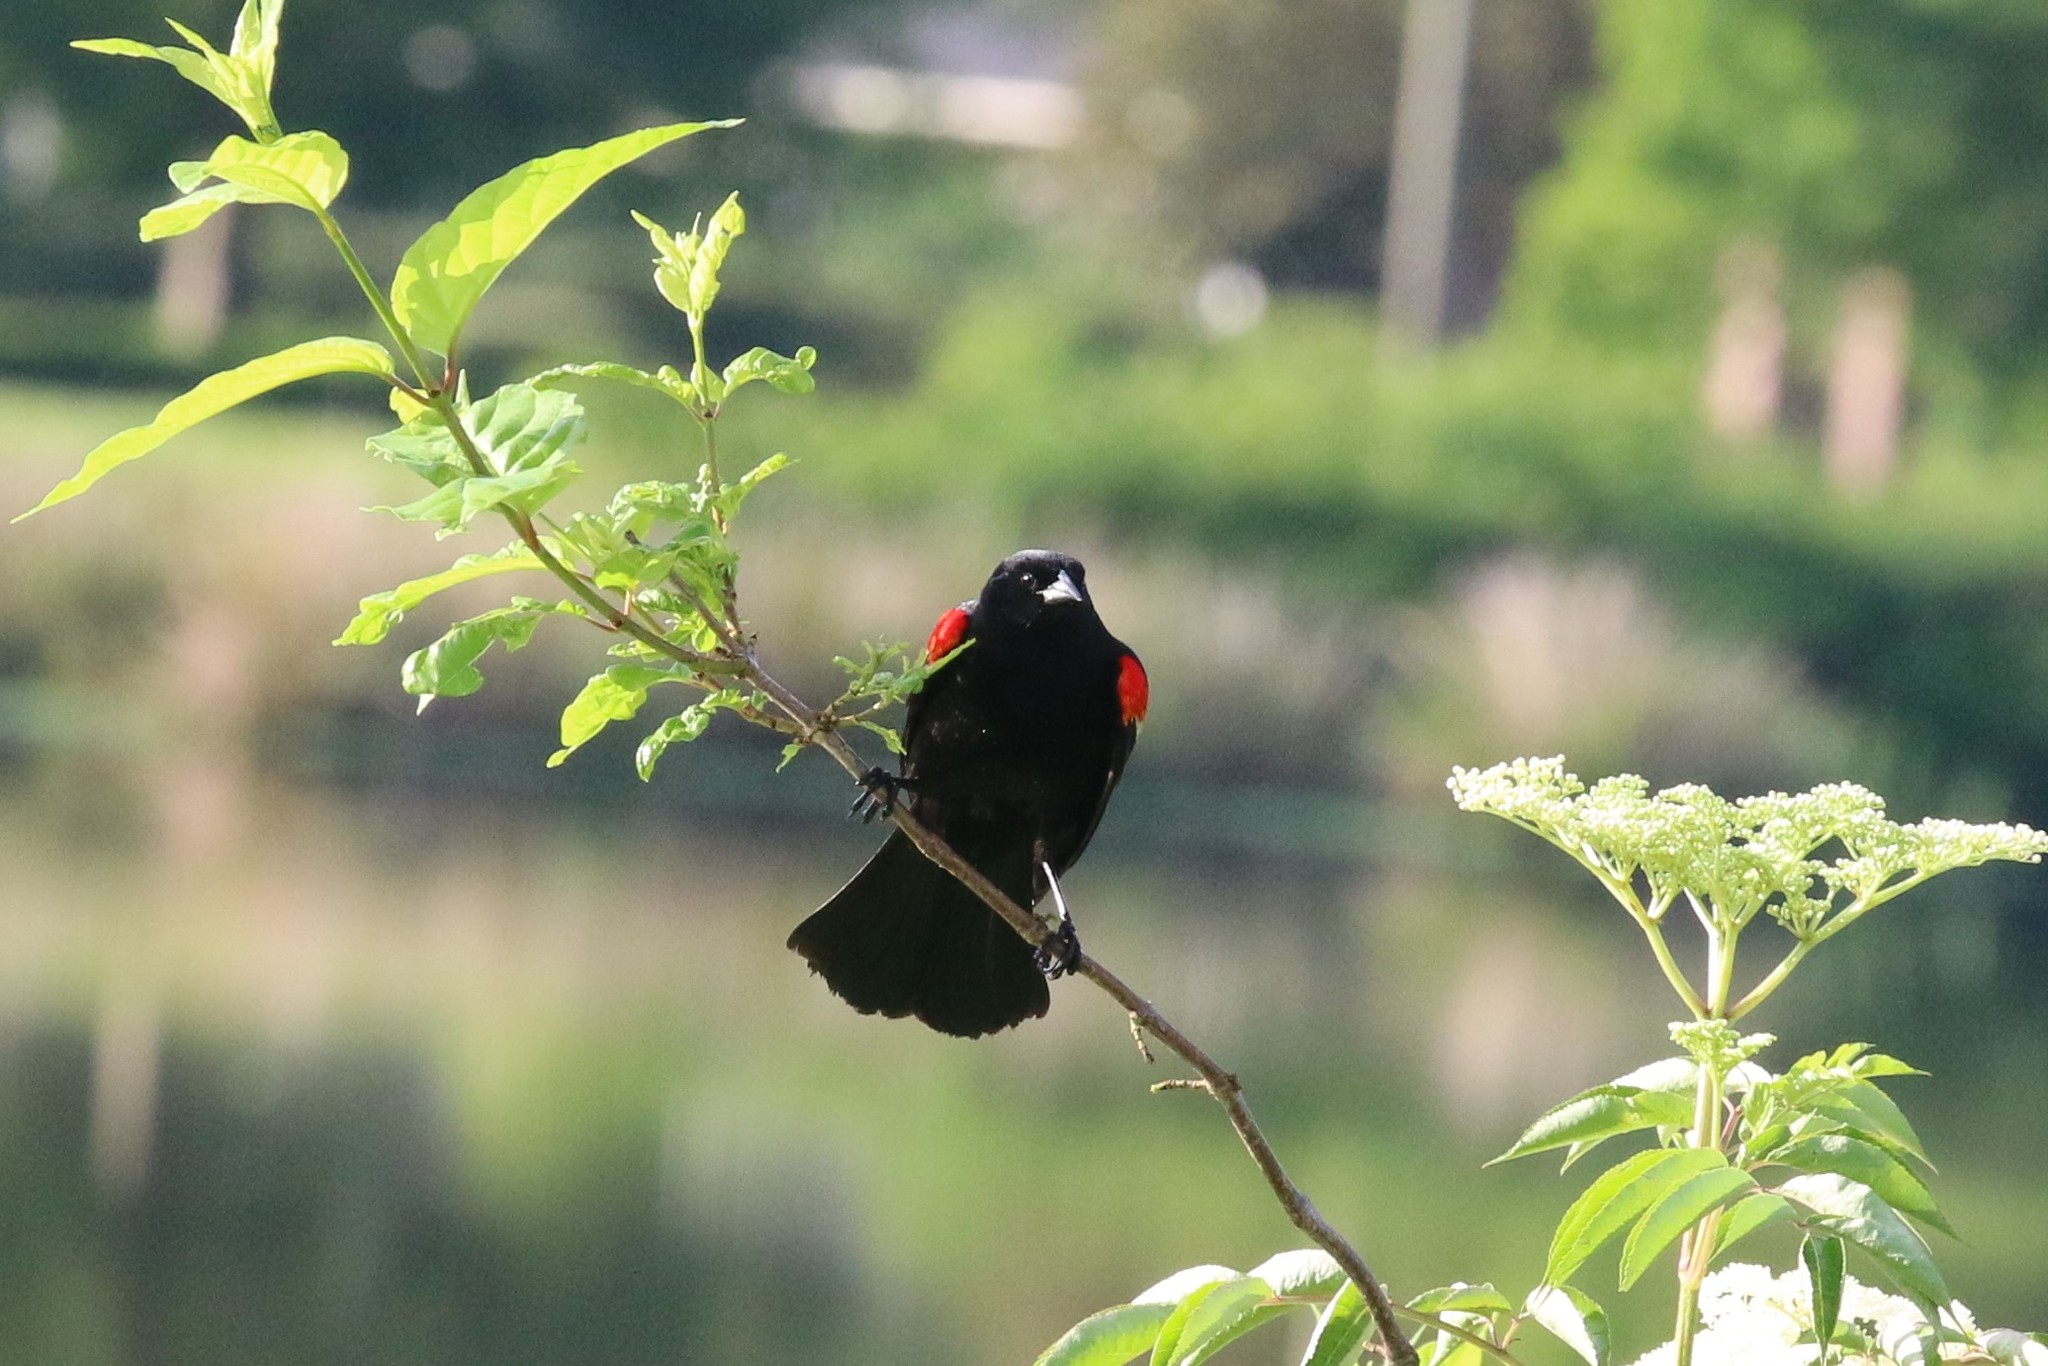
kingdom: Animalia
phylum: Chordata
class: Aves
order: Passeriformes
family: Icteridae
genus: Agelaius
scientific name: Agelaius phoeniceus
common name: Red-winged blackbird
